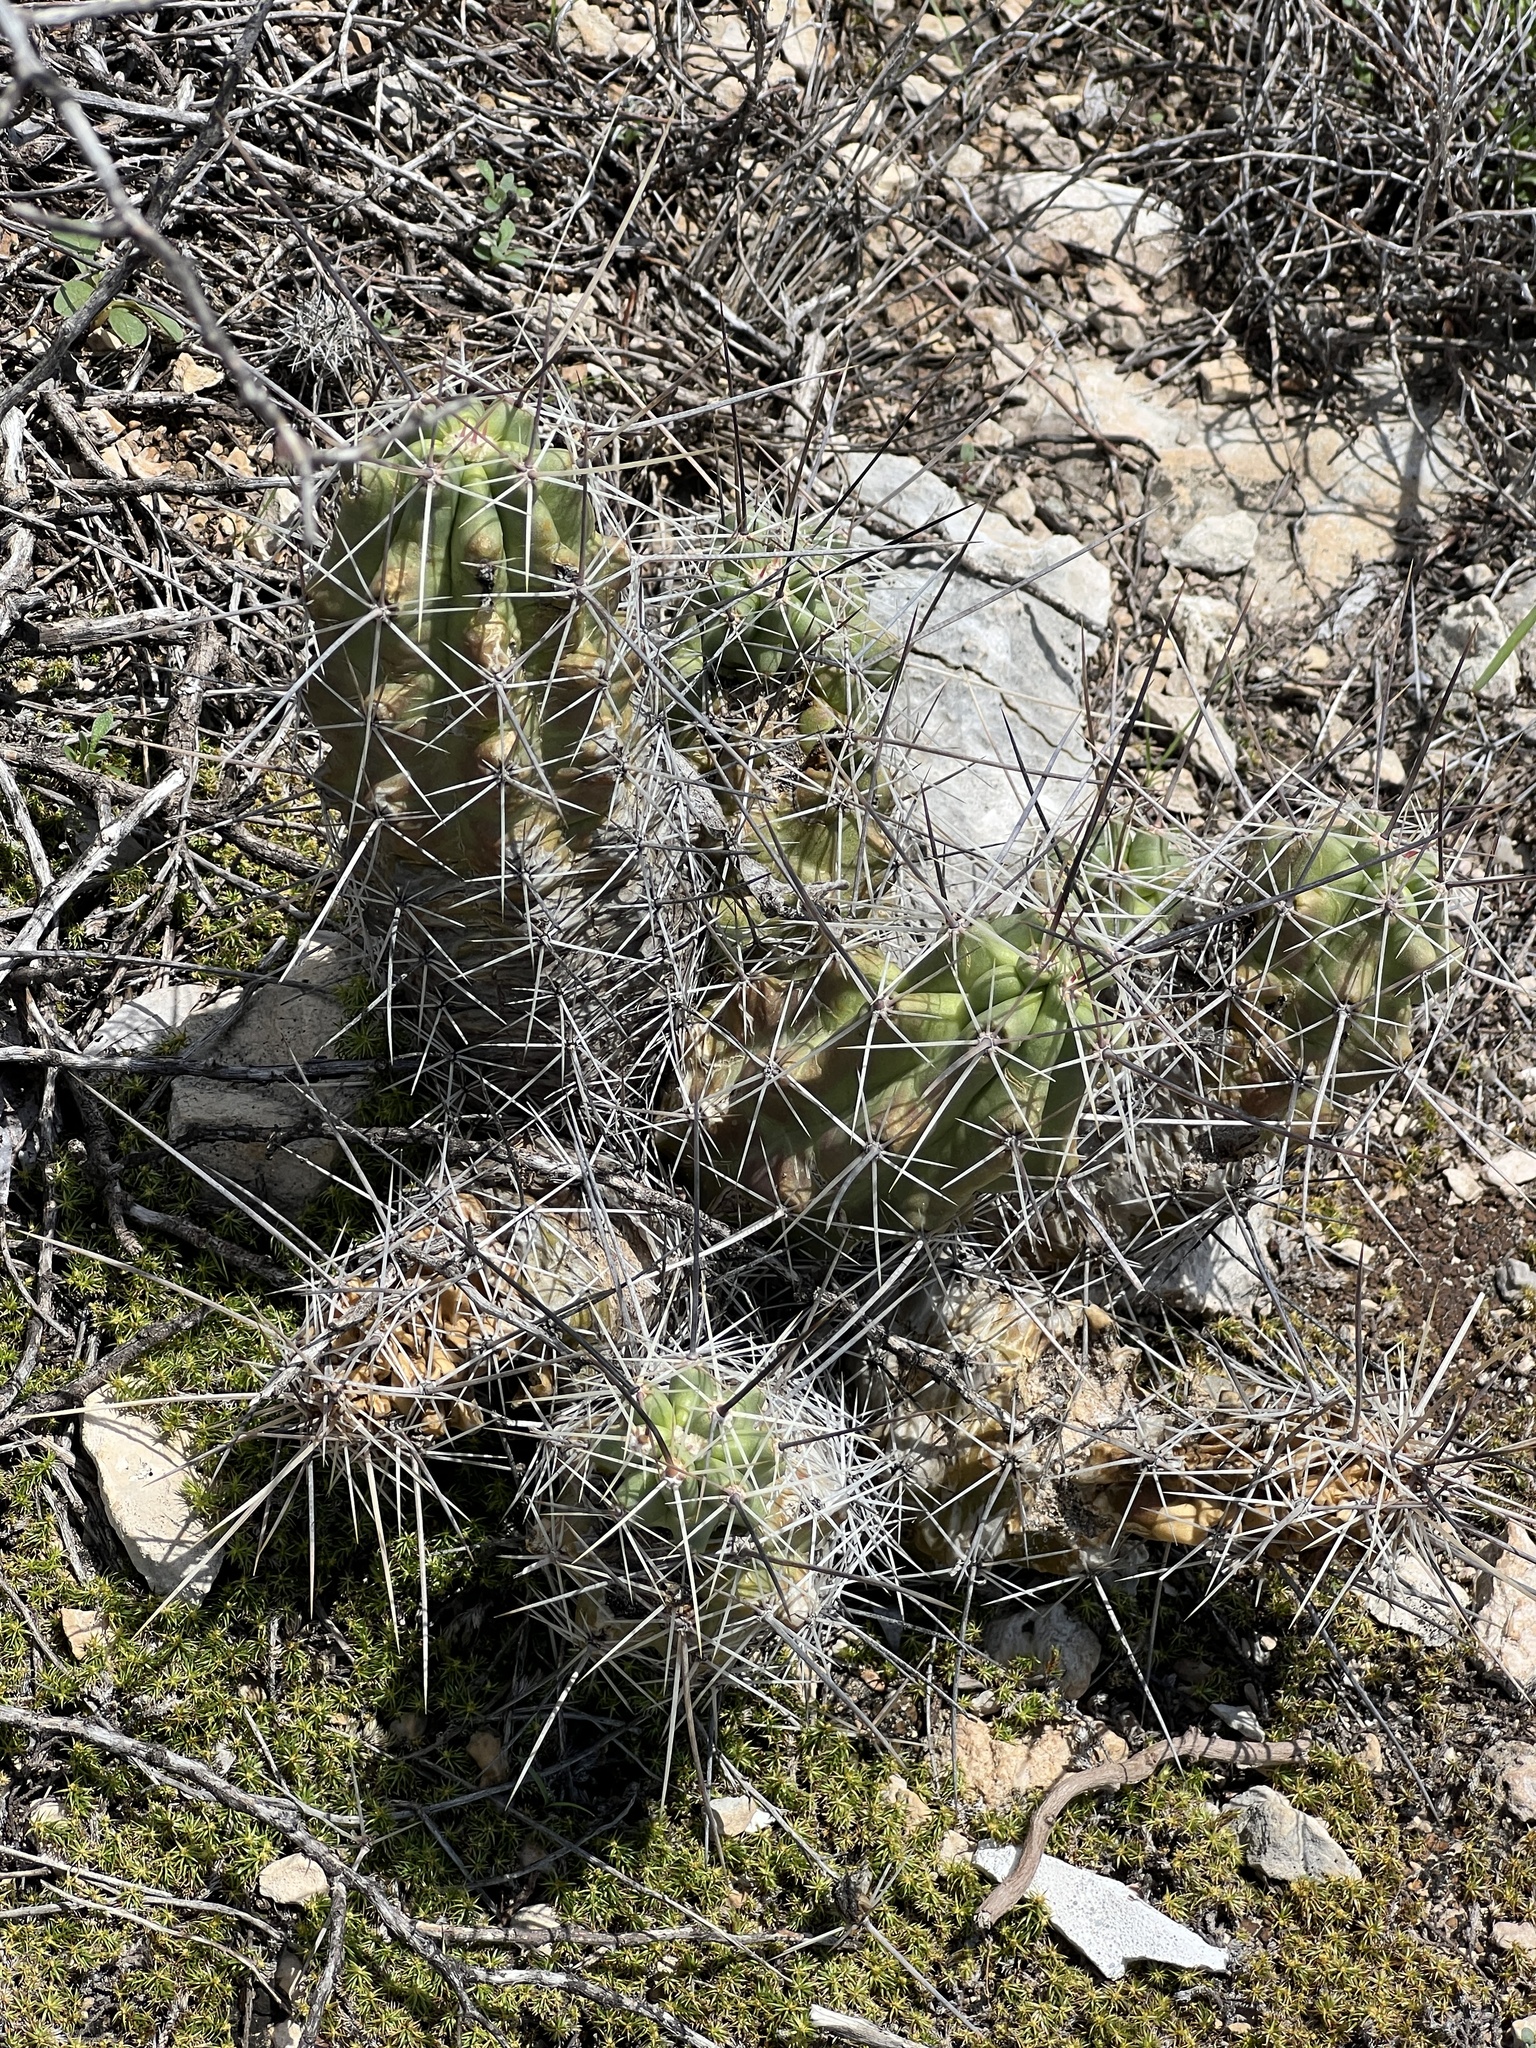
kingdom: Plantae
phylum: Tracheophyta
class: Magnoliopsida
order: Caryophyllales
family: Cactaceae
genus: Echinocereus
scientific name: Echinocereus enneacanthus
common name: Pitaya
